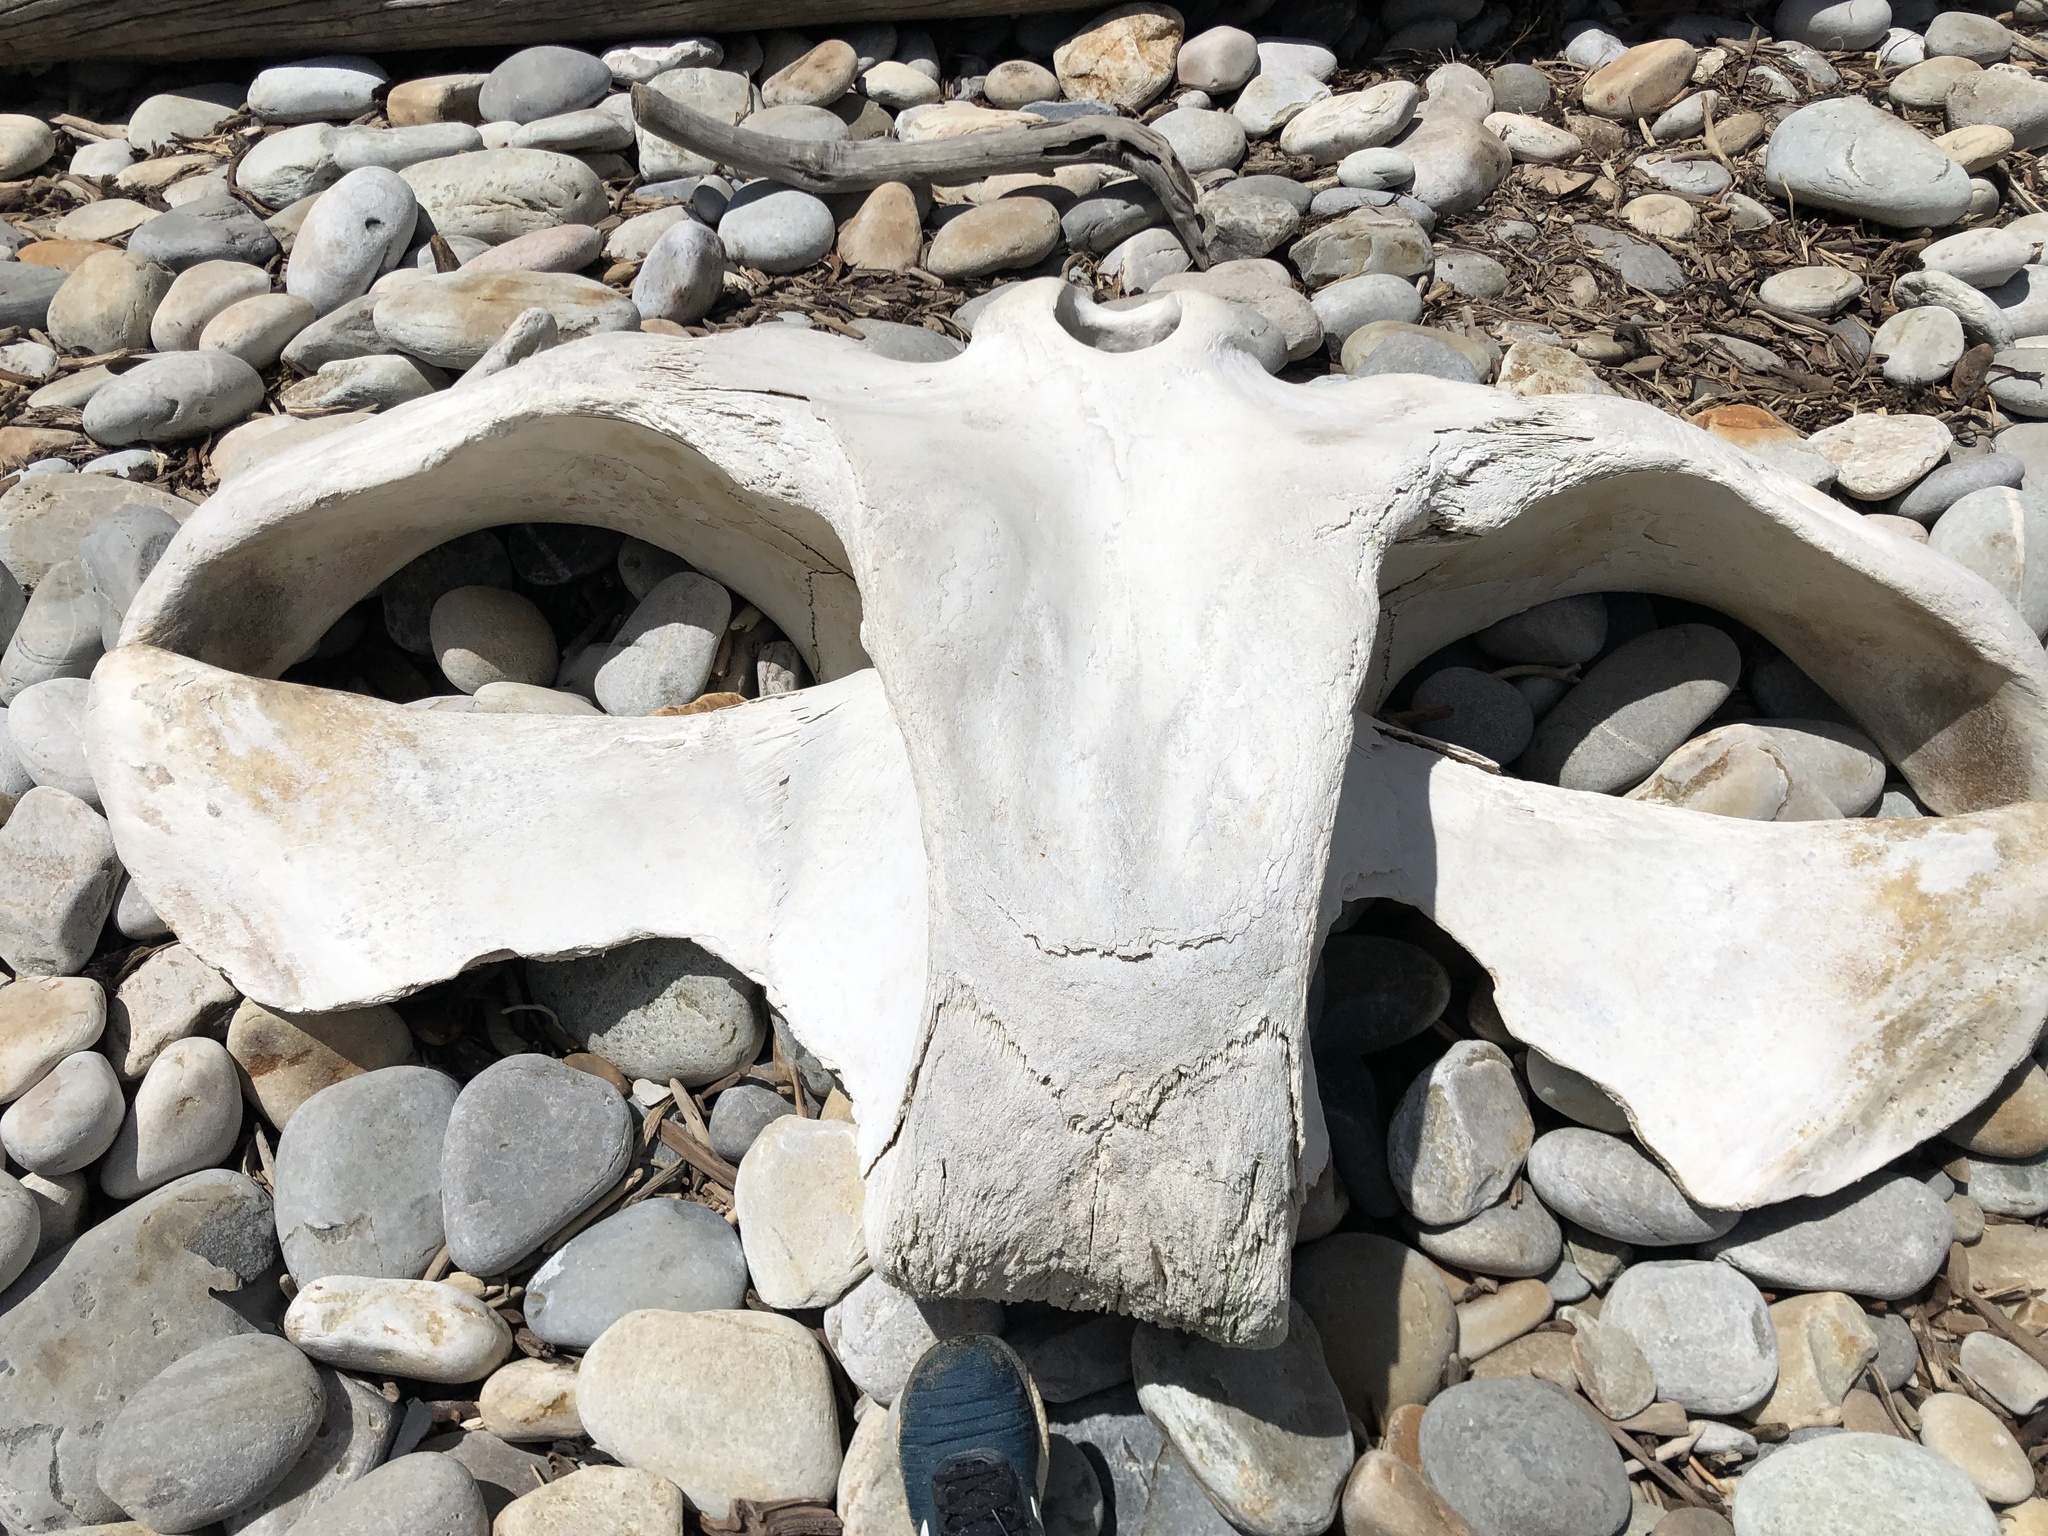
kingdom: Animalia
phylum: Chordata
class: Mammalia
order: Cetacea
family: Balaenidae
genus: Eubalaena
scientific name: Eubalaena australis
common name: Southern right whale
